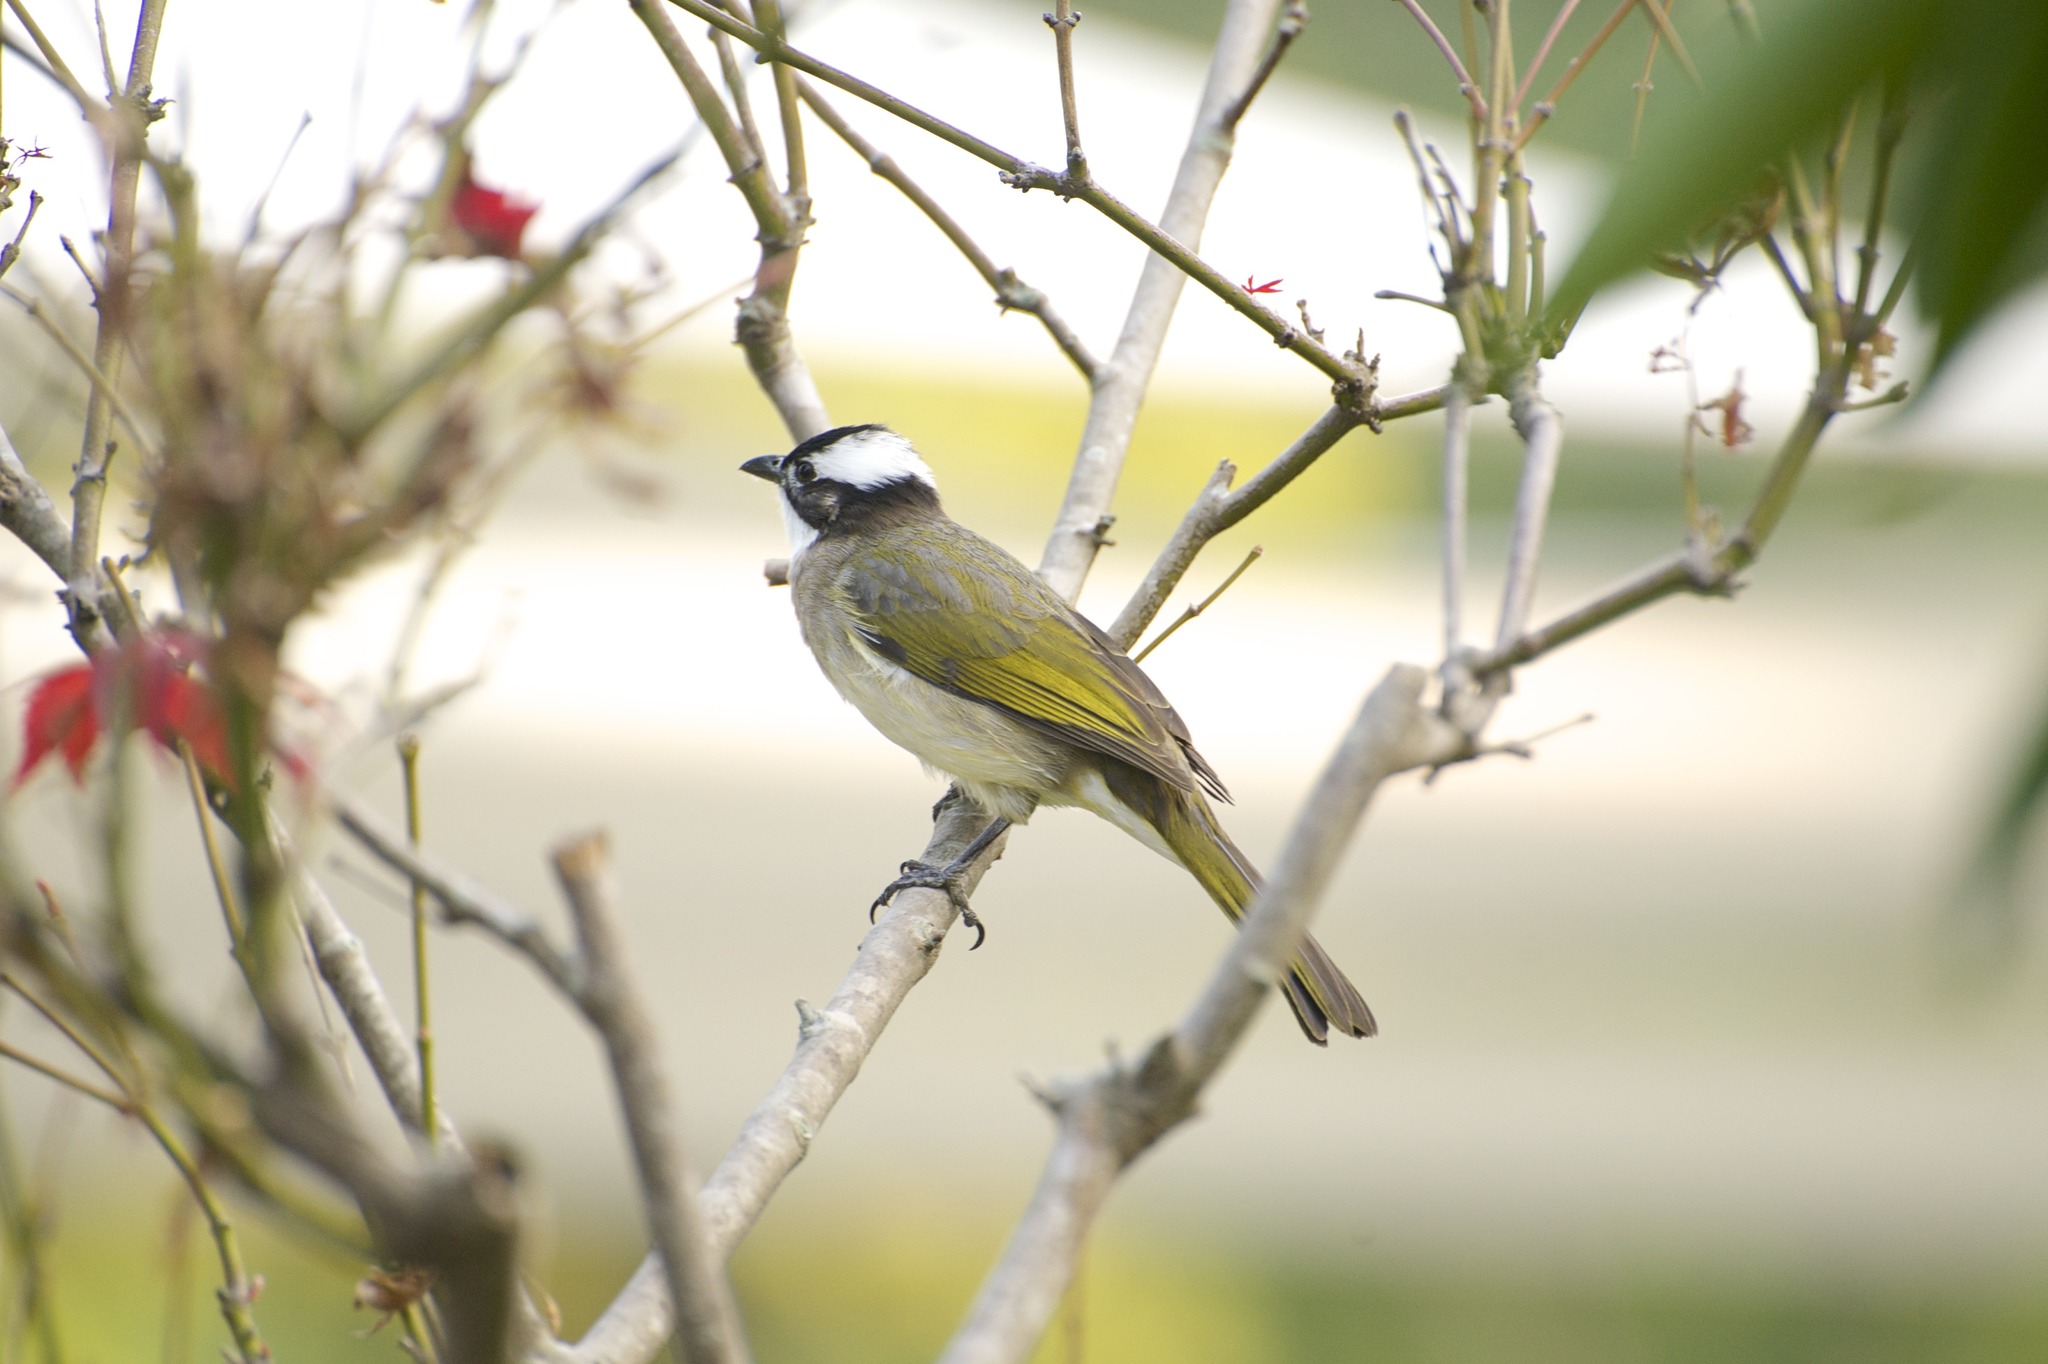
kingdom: Animalia
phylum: Chordata
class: Aves
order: Passeriformes
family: Pycnonotidae
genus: Pycnonotus
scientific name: Pycnonotus sinensis
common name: Light-vented bulbul
